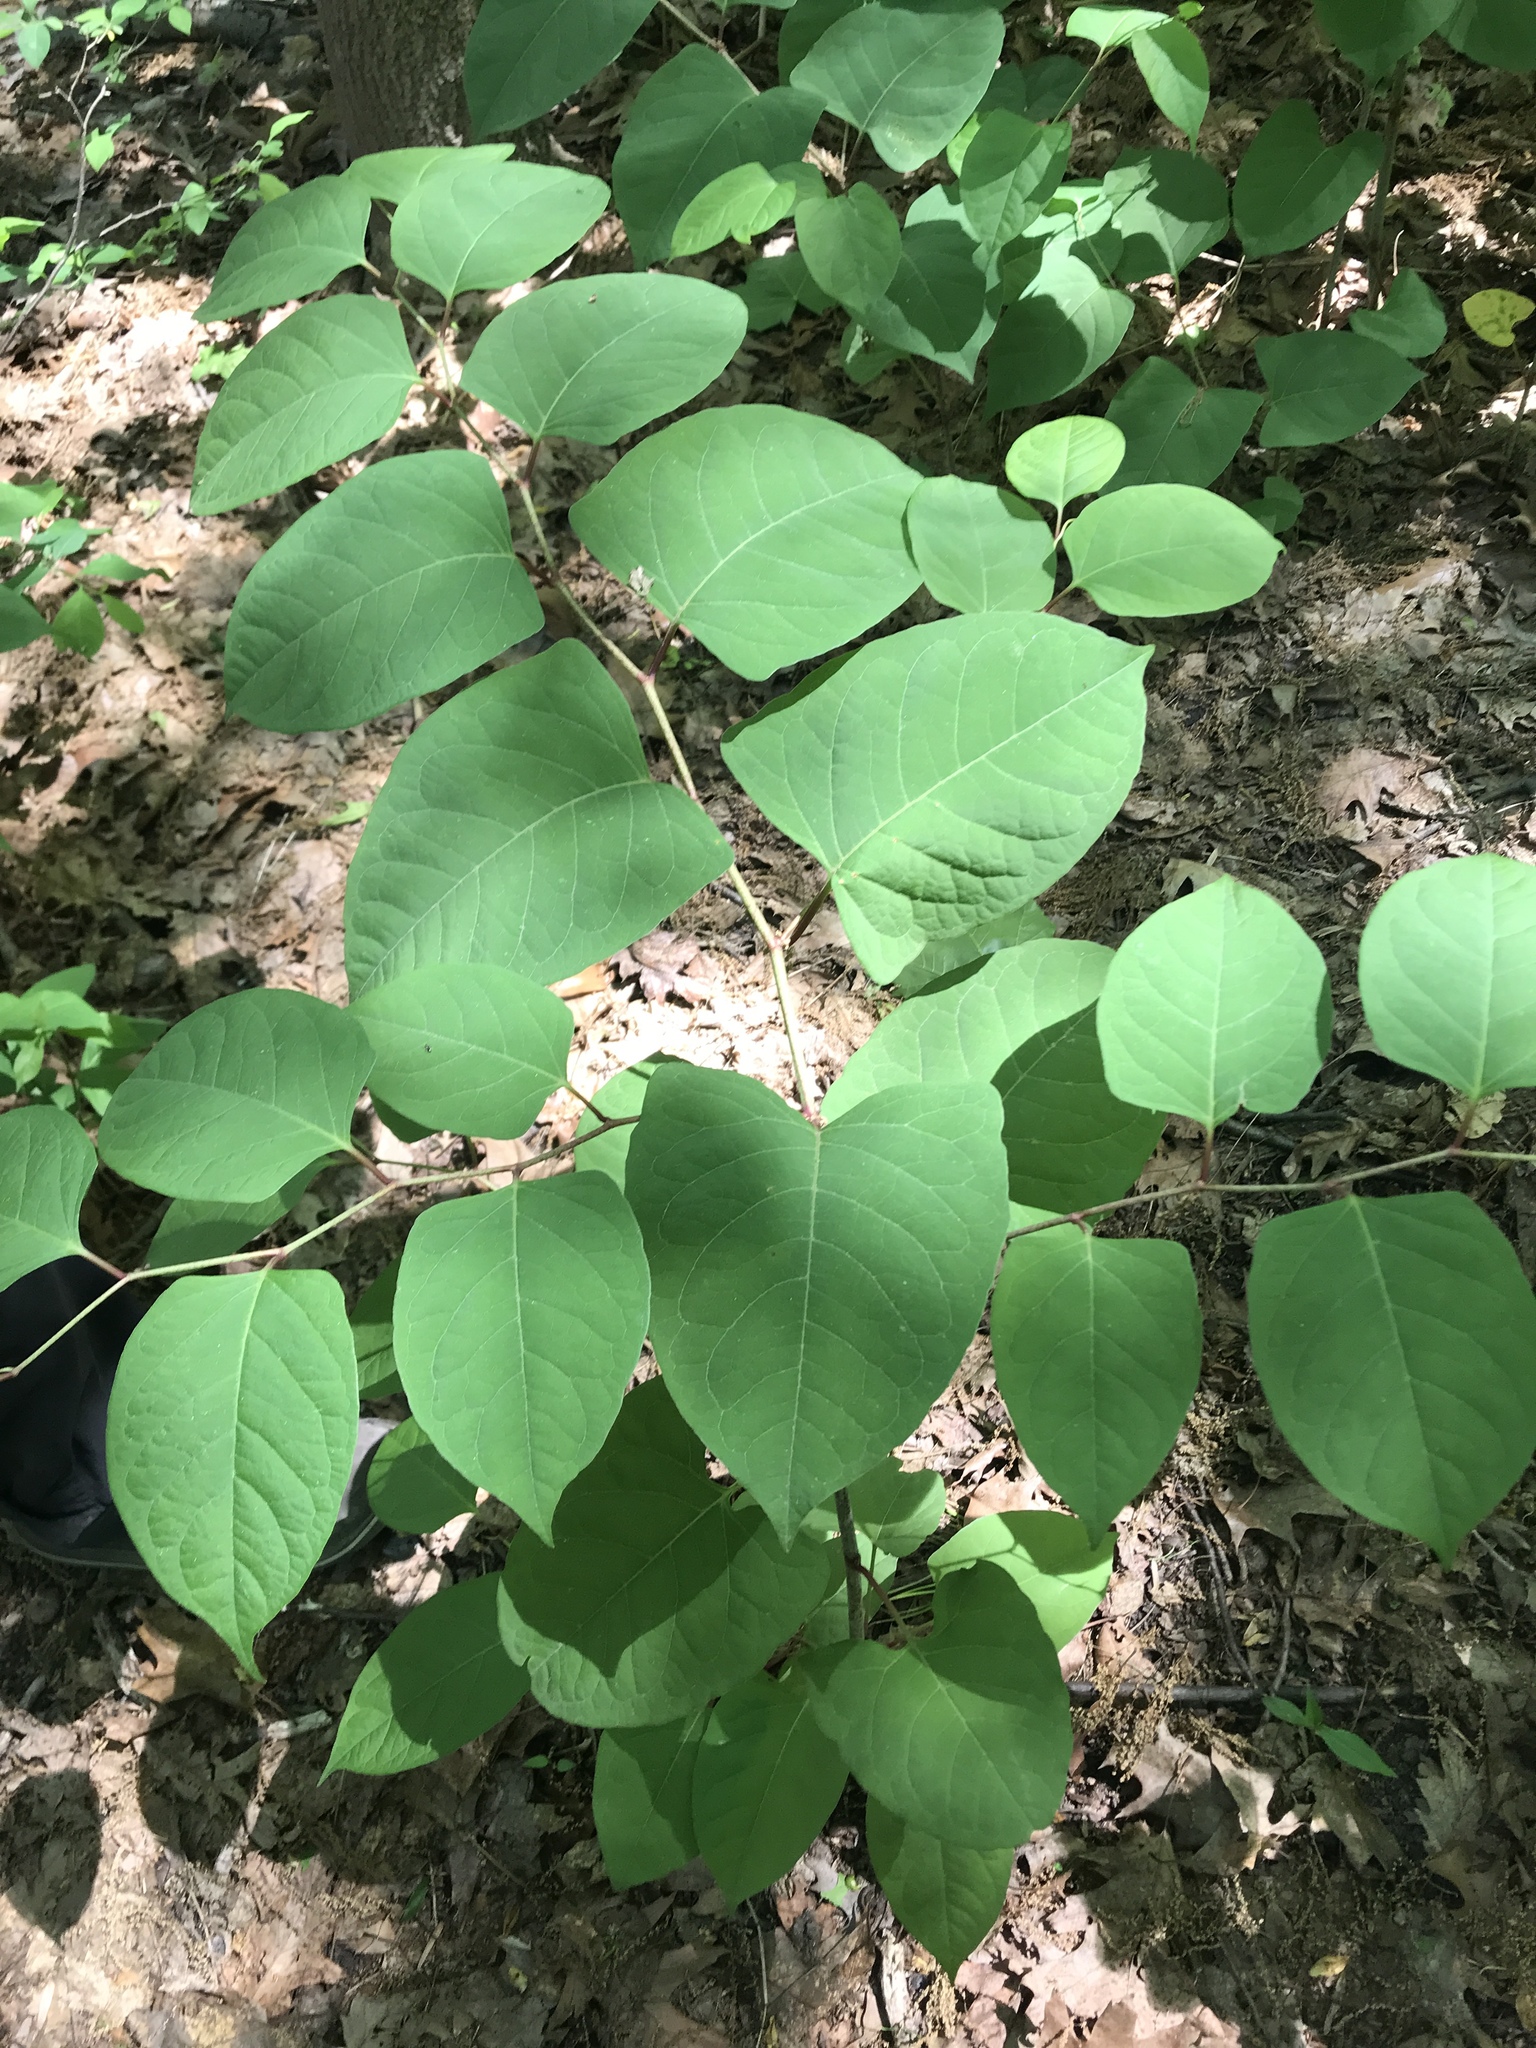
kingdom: Plantae
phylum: Tracheophyta
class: Magnoliopsida
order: Caryophyllales
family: Polygonaceae
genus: Reynoutria
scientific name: Reynoutria japonica
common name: Japanese knotweed
